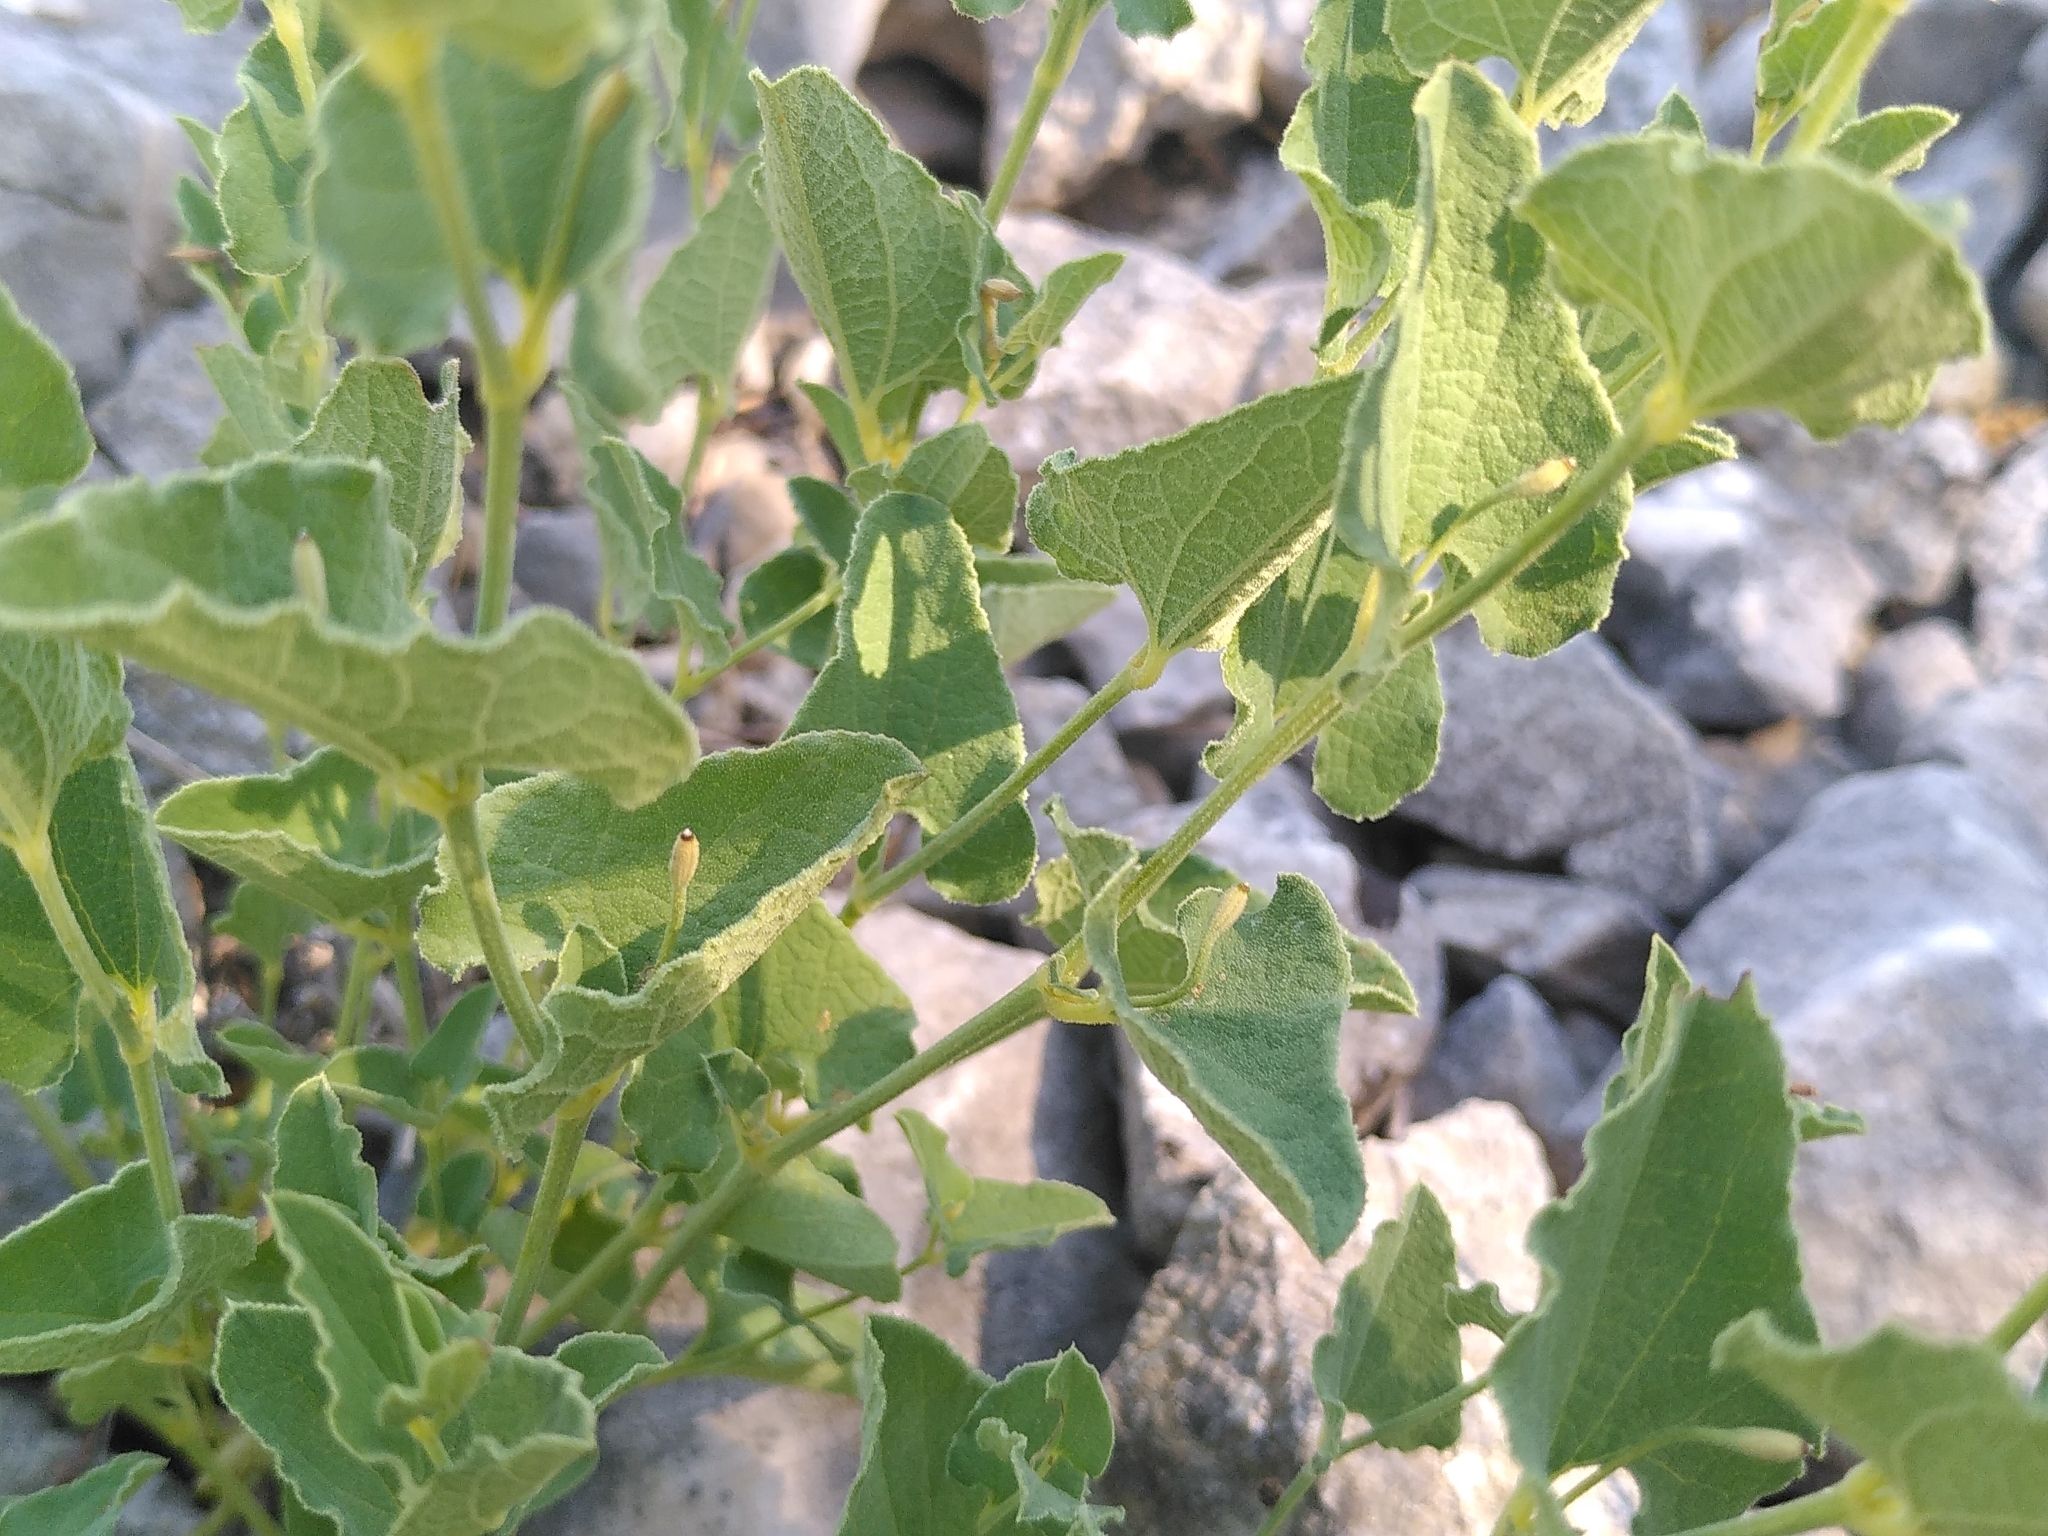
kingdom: Plantae
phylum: Tracheophyta
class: Magnoliopsida
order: Piperales
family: Aristolochiaceae
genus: Aristolochia
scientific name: Aristolochia pistolochia
